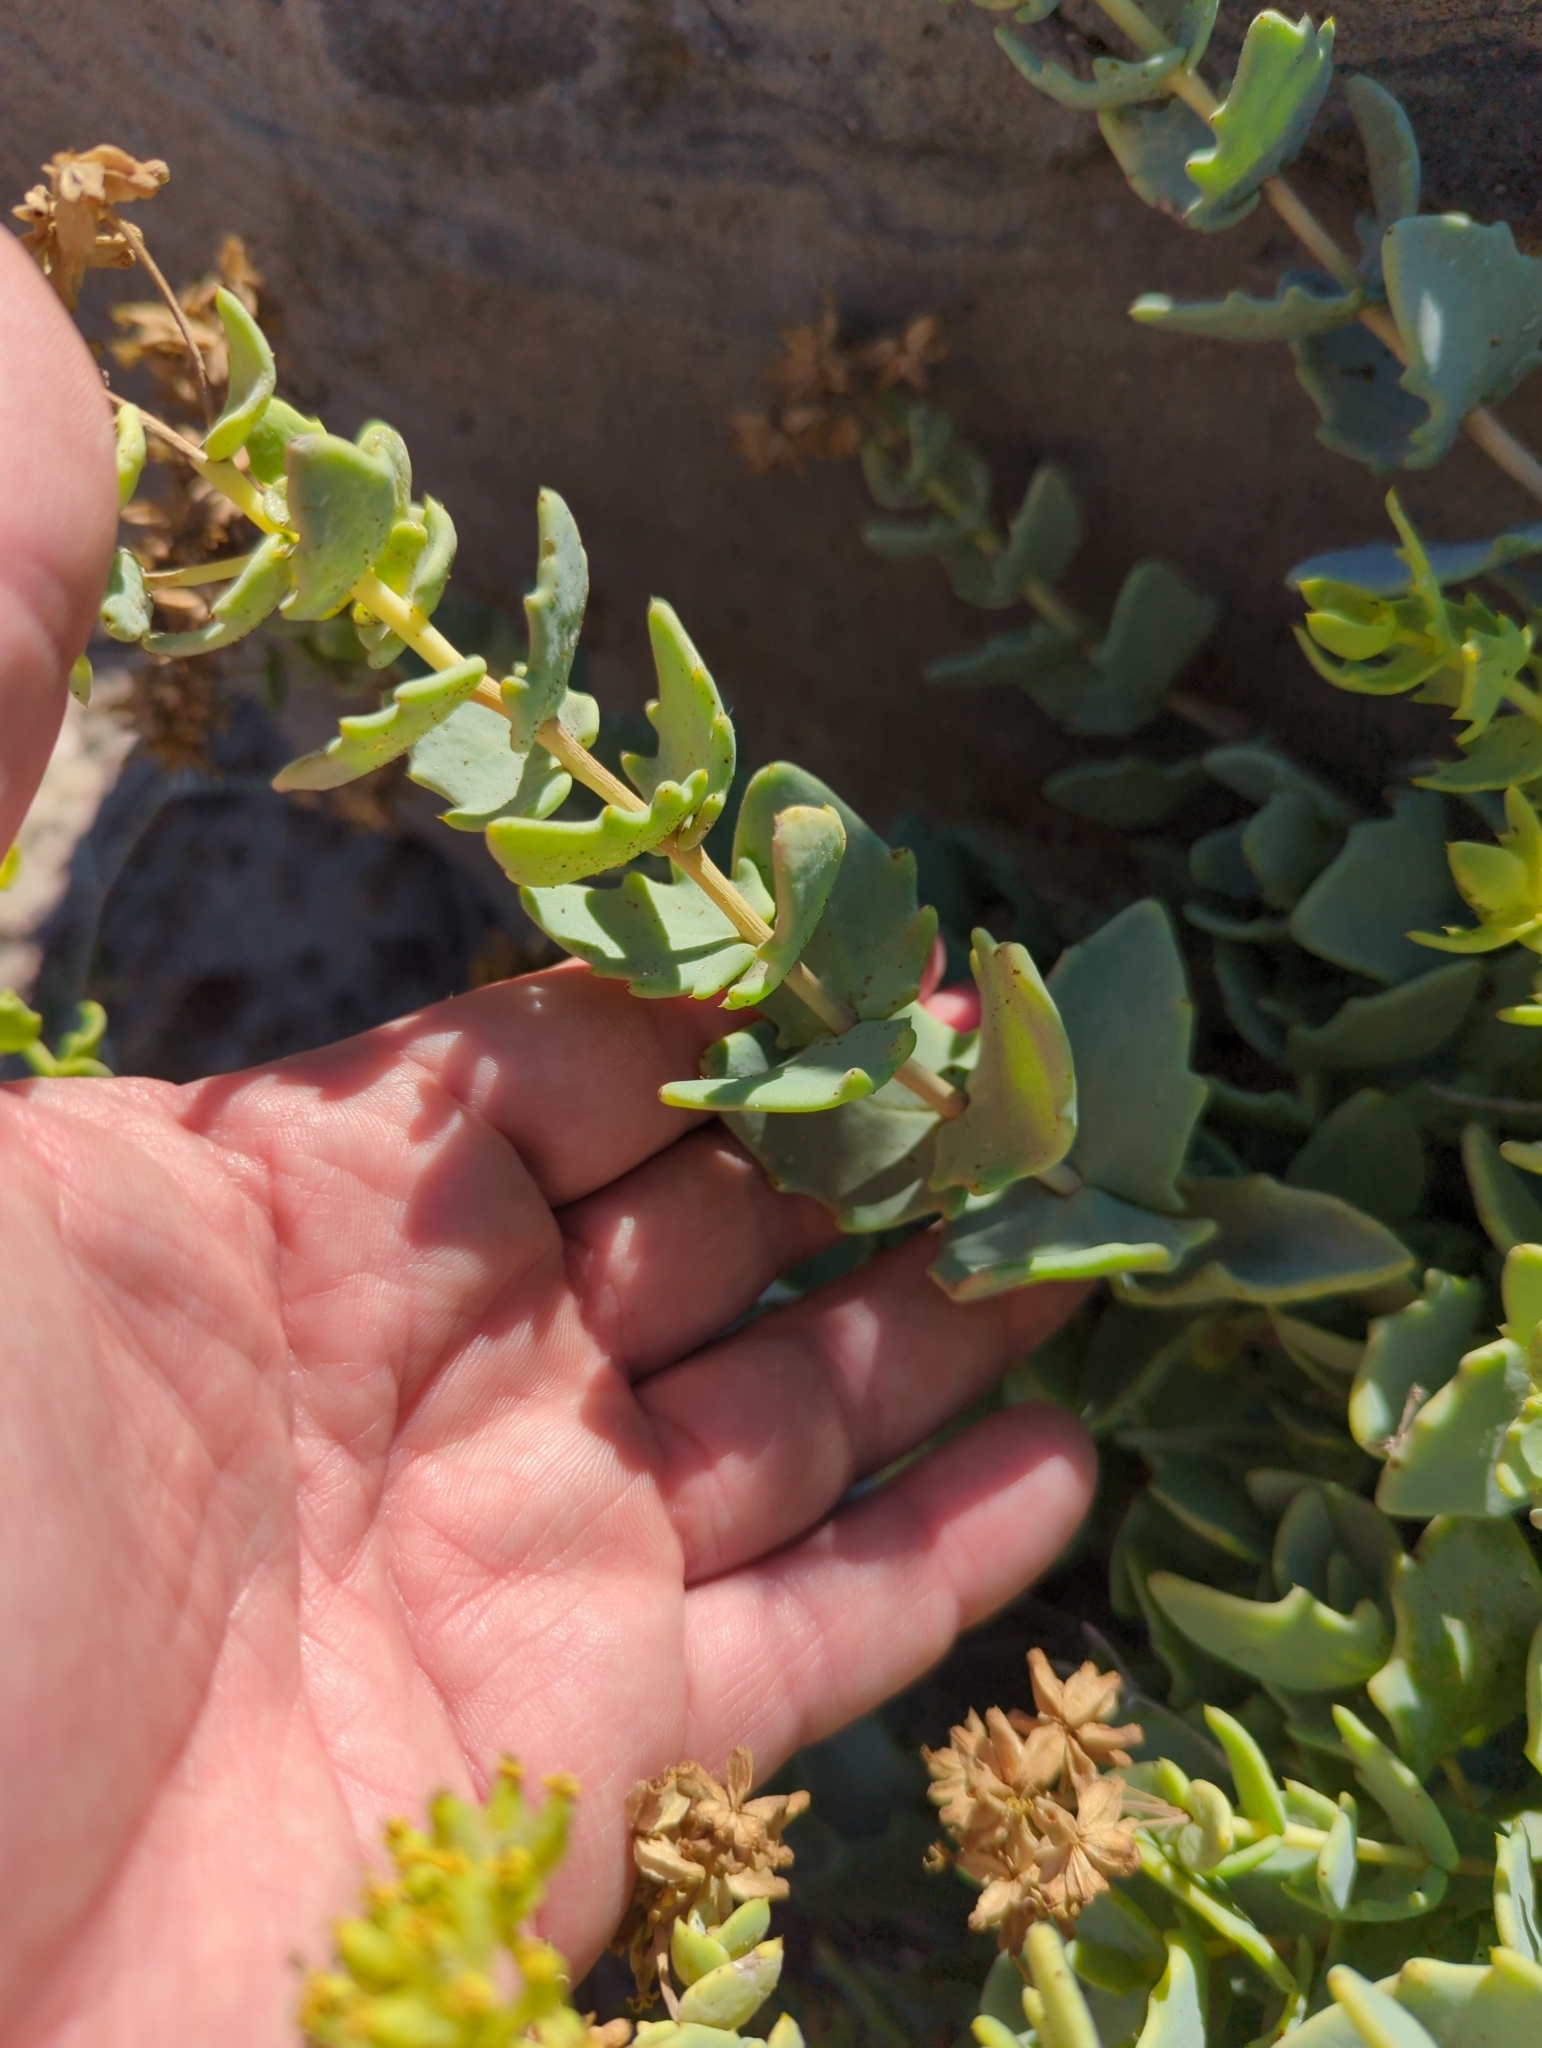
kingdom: Plantae
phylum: Tracheophyta
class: Magnoliopsida
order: Asterales
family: Asteraceae
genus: Coulterella
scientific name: Coulterella capitata
